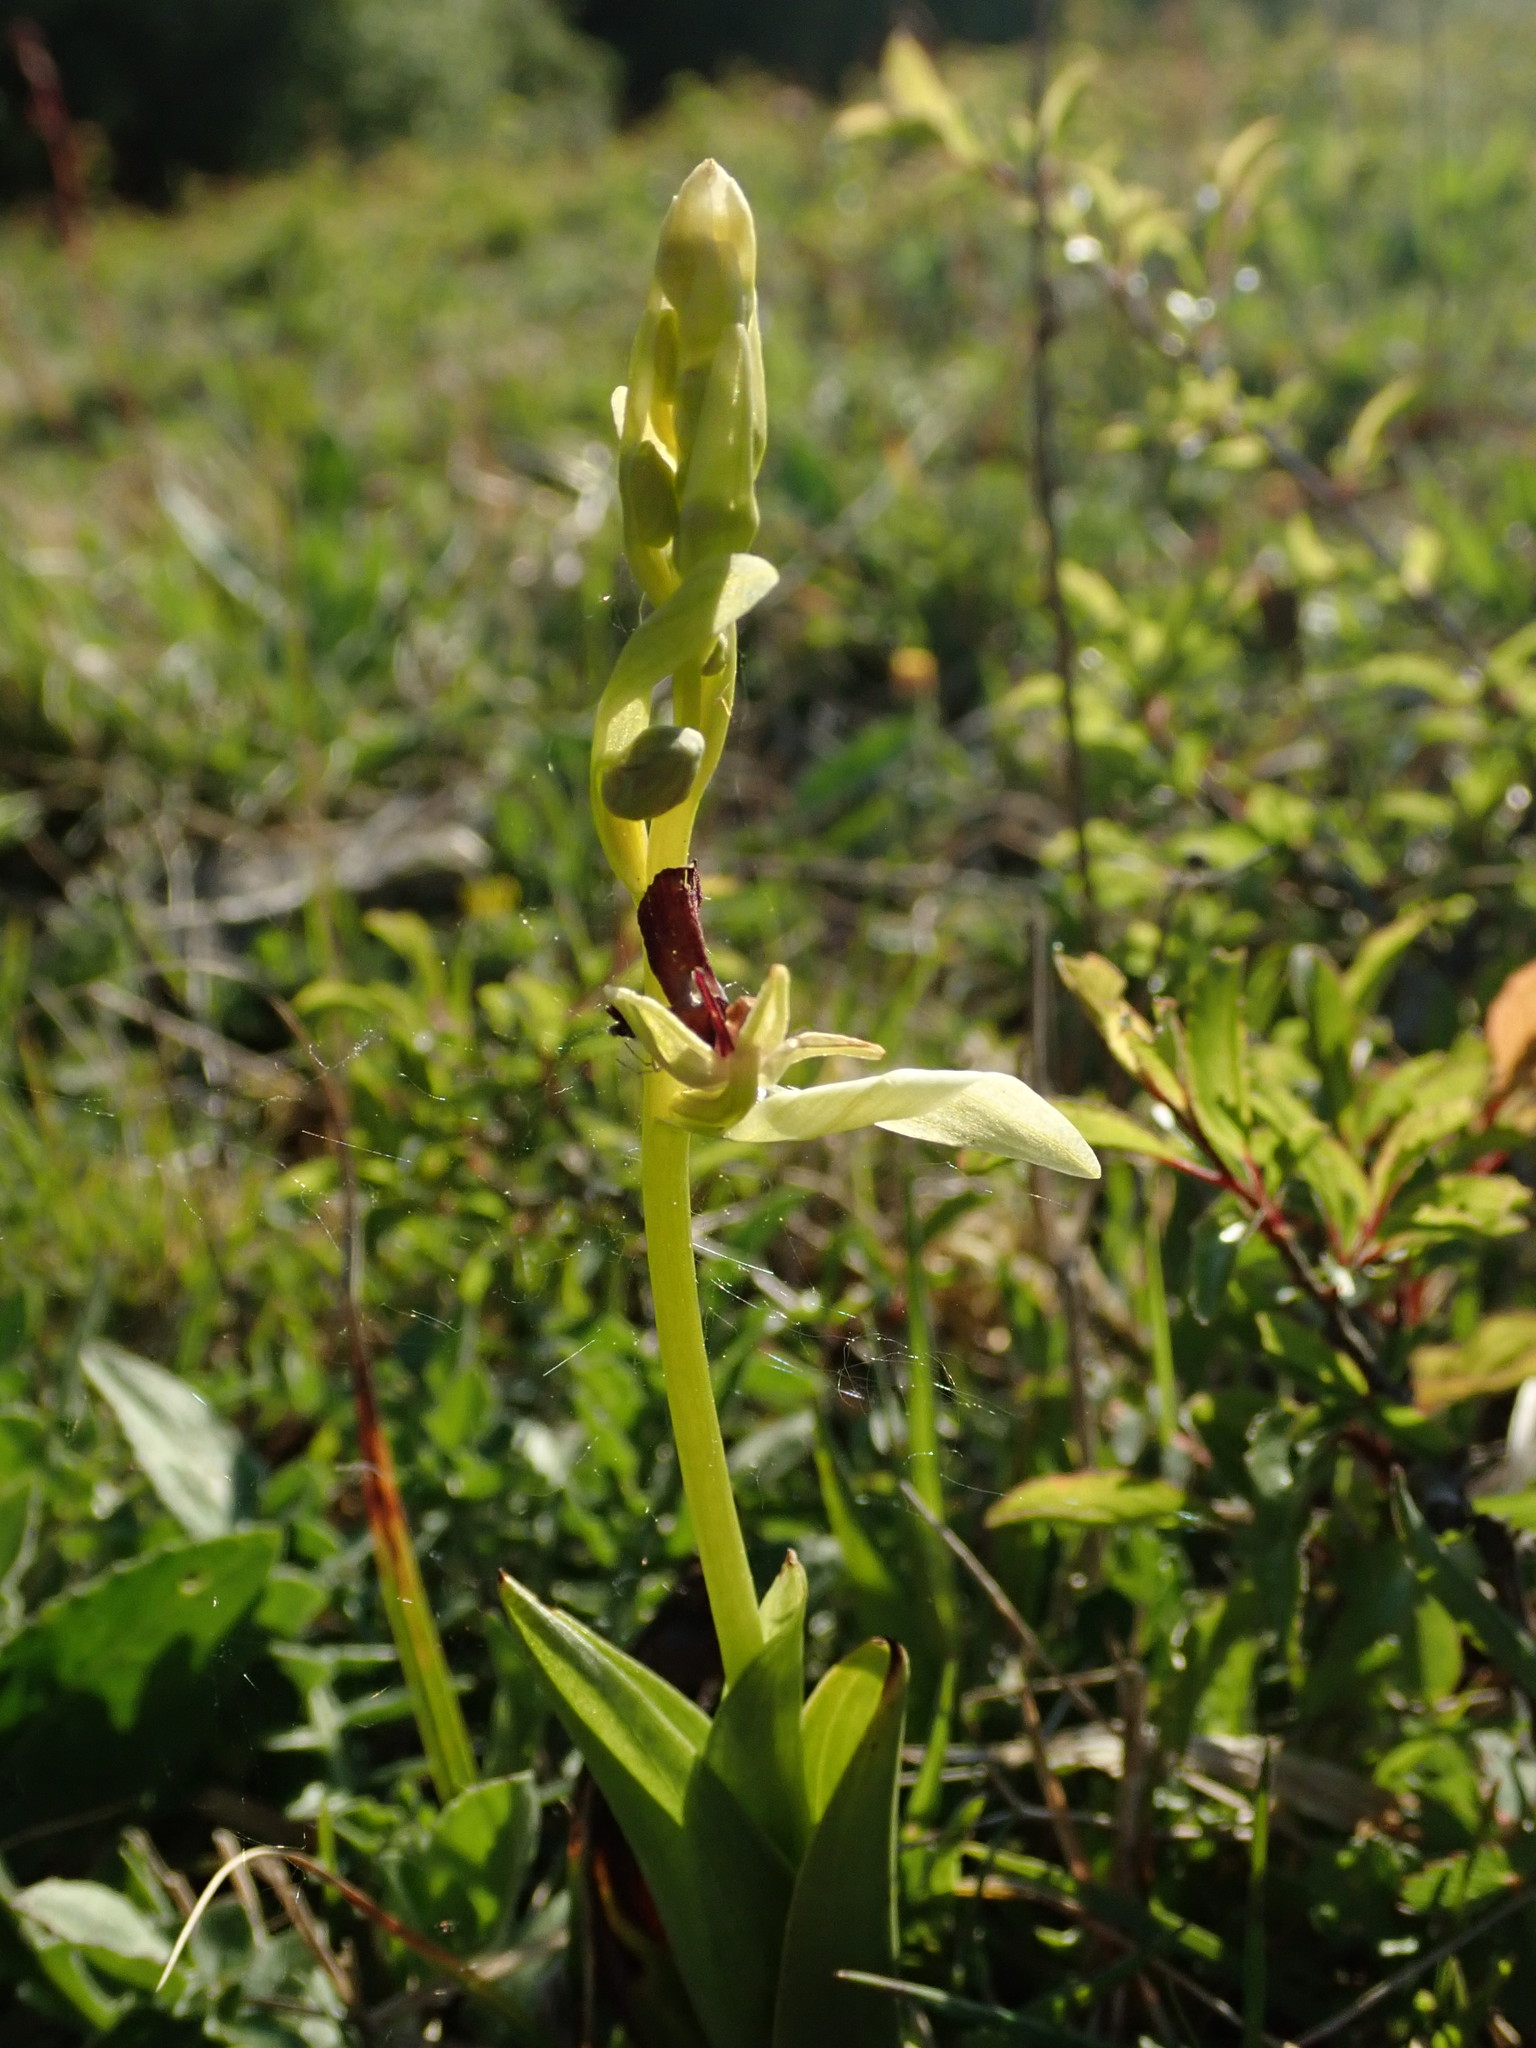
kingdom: Plantae
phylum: Tracheophyta
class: Liliopsida
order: Asparagales
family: Orchidaceae
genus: Ophrys
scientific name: Ophrys insectifera
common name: Fly orchid
